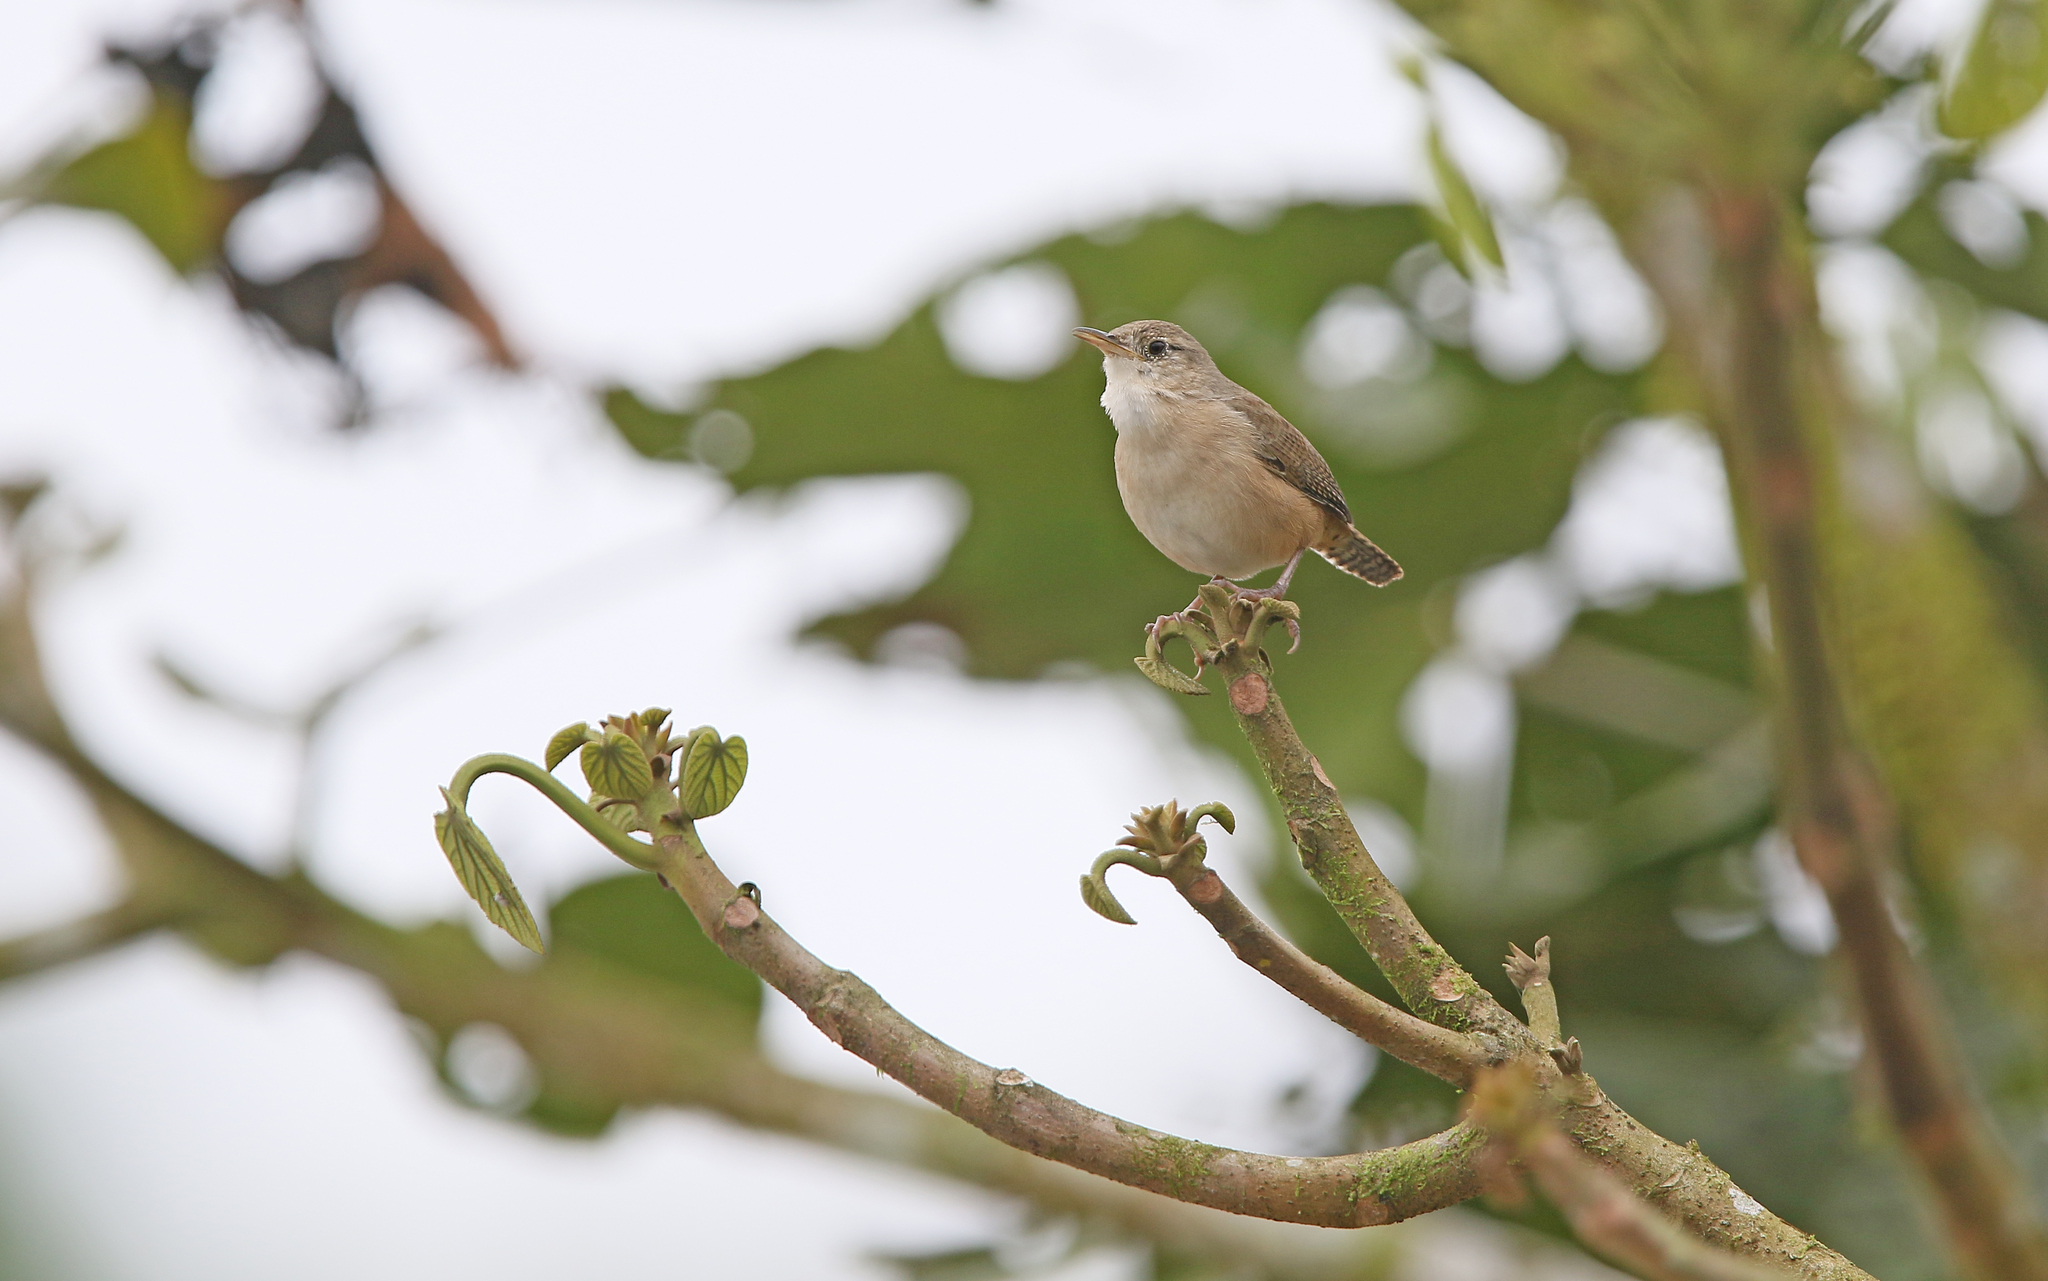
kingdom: Animalia
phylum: Chordata
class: Aves
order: Passeriformes
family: Troglodytidae
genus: Troglodytes
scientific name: Troglodytes aedon
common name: House wren
